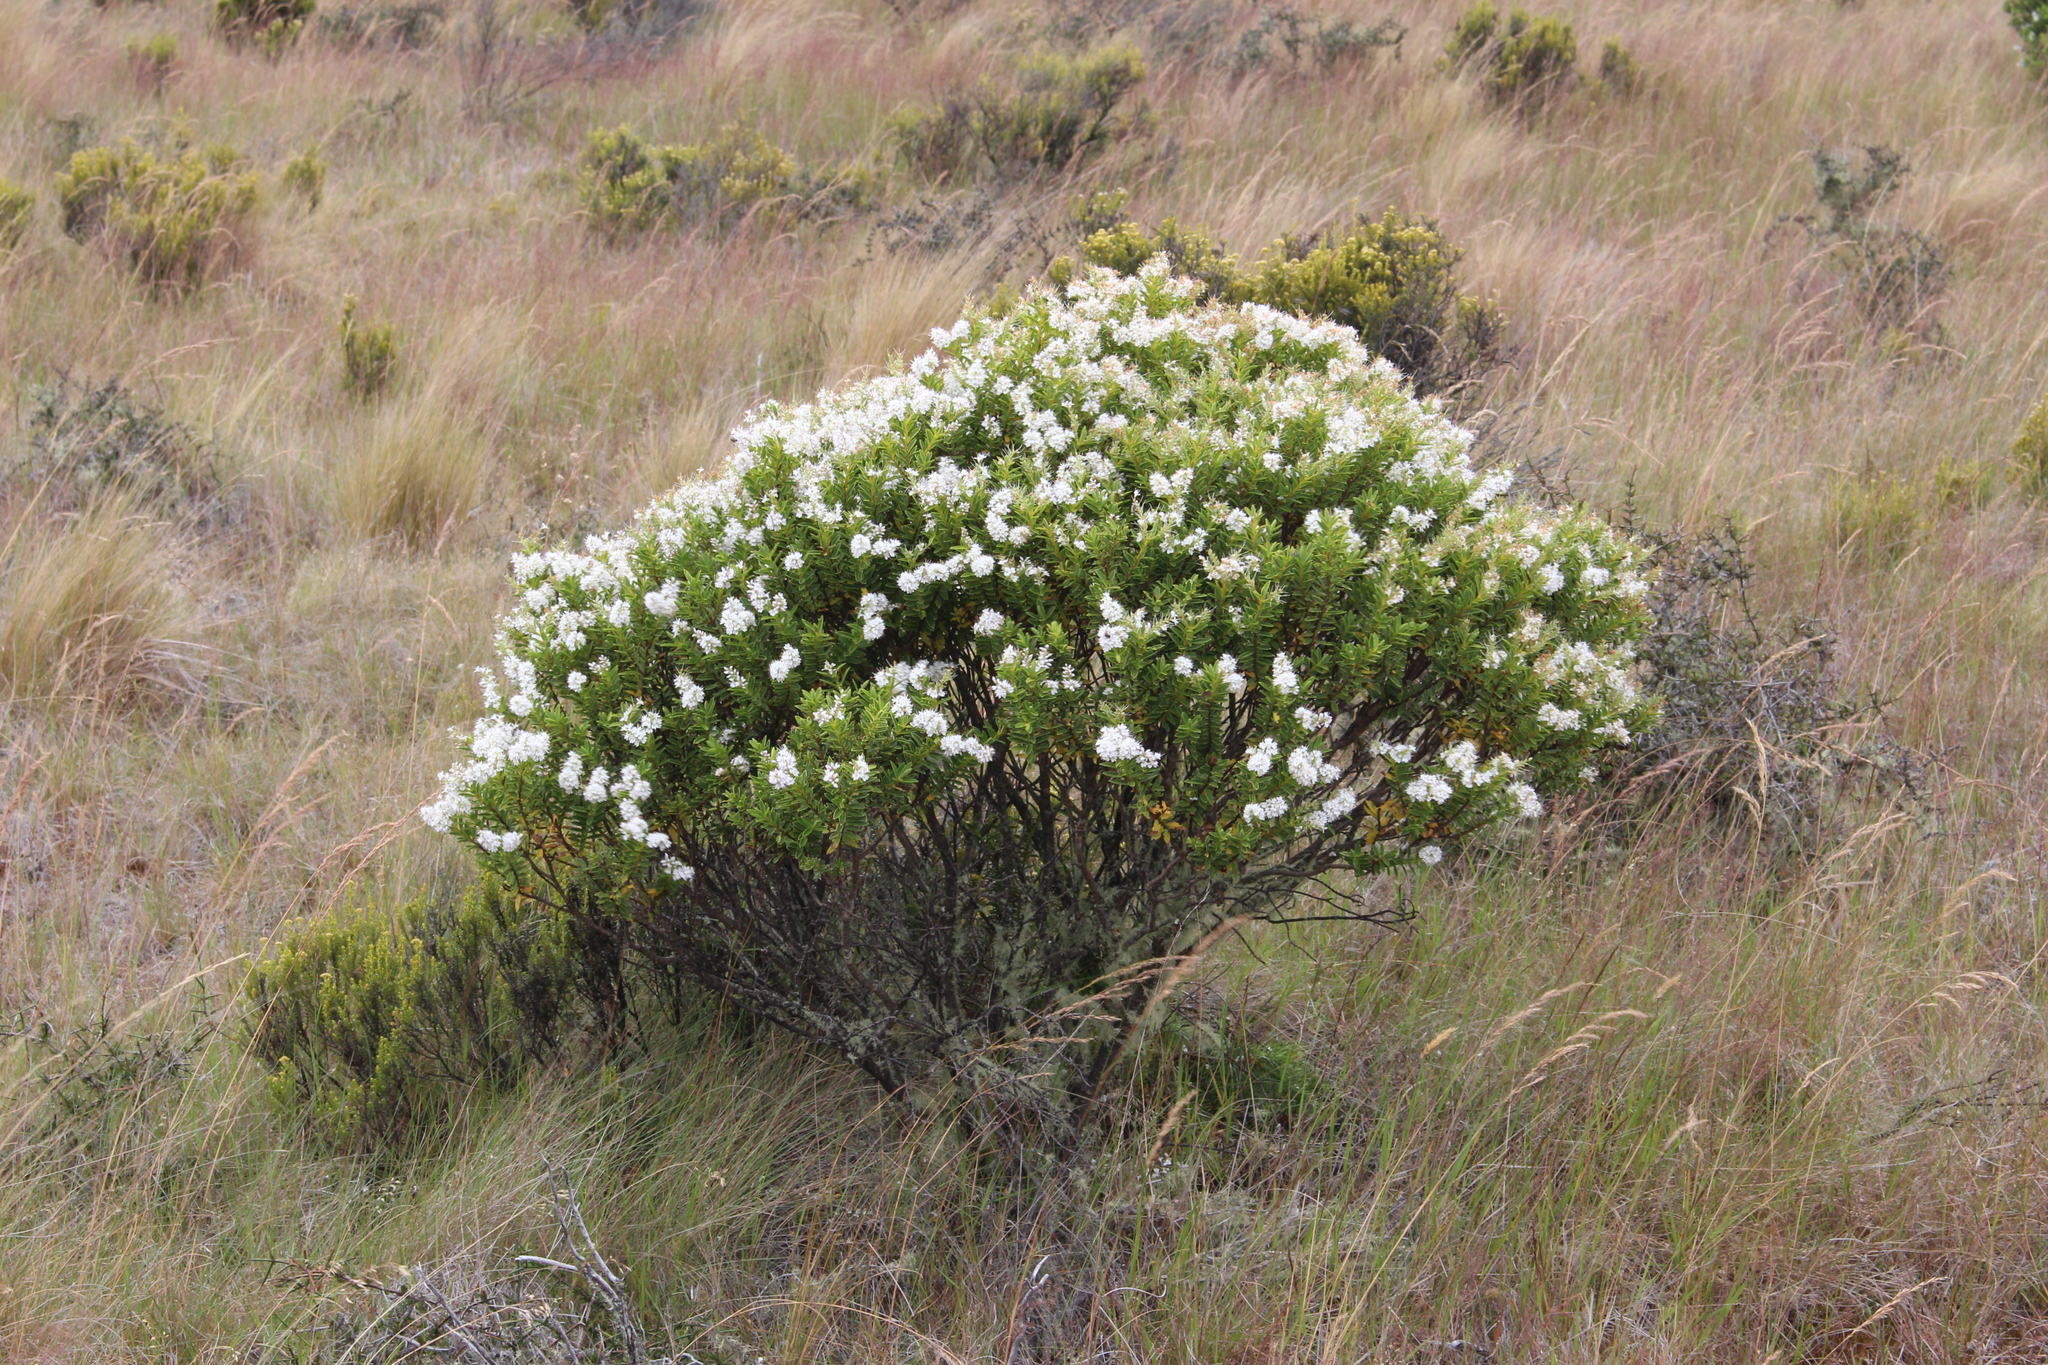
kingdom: Plantae
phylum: Tracheophyta
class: Magnoliopsida
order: Lamiales
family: Plantaginaceae
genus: Veronica
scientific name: Veronica brachysiphon
